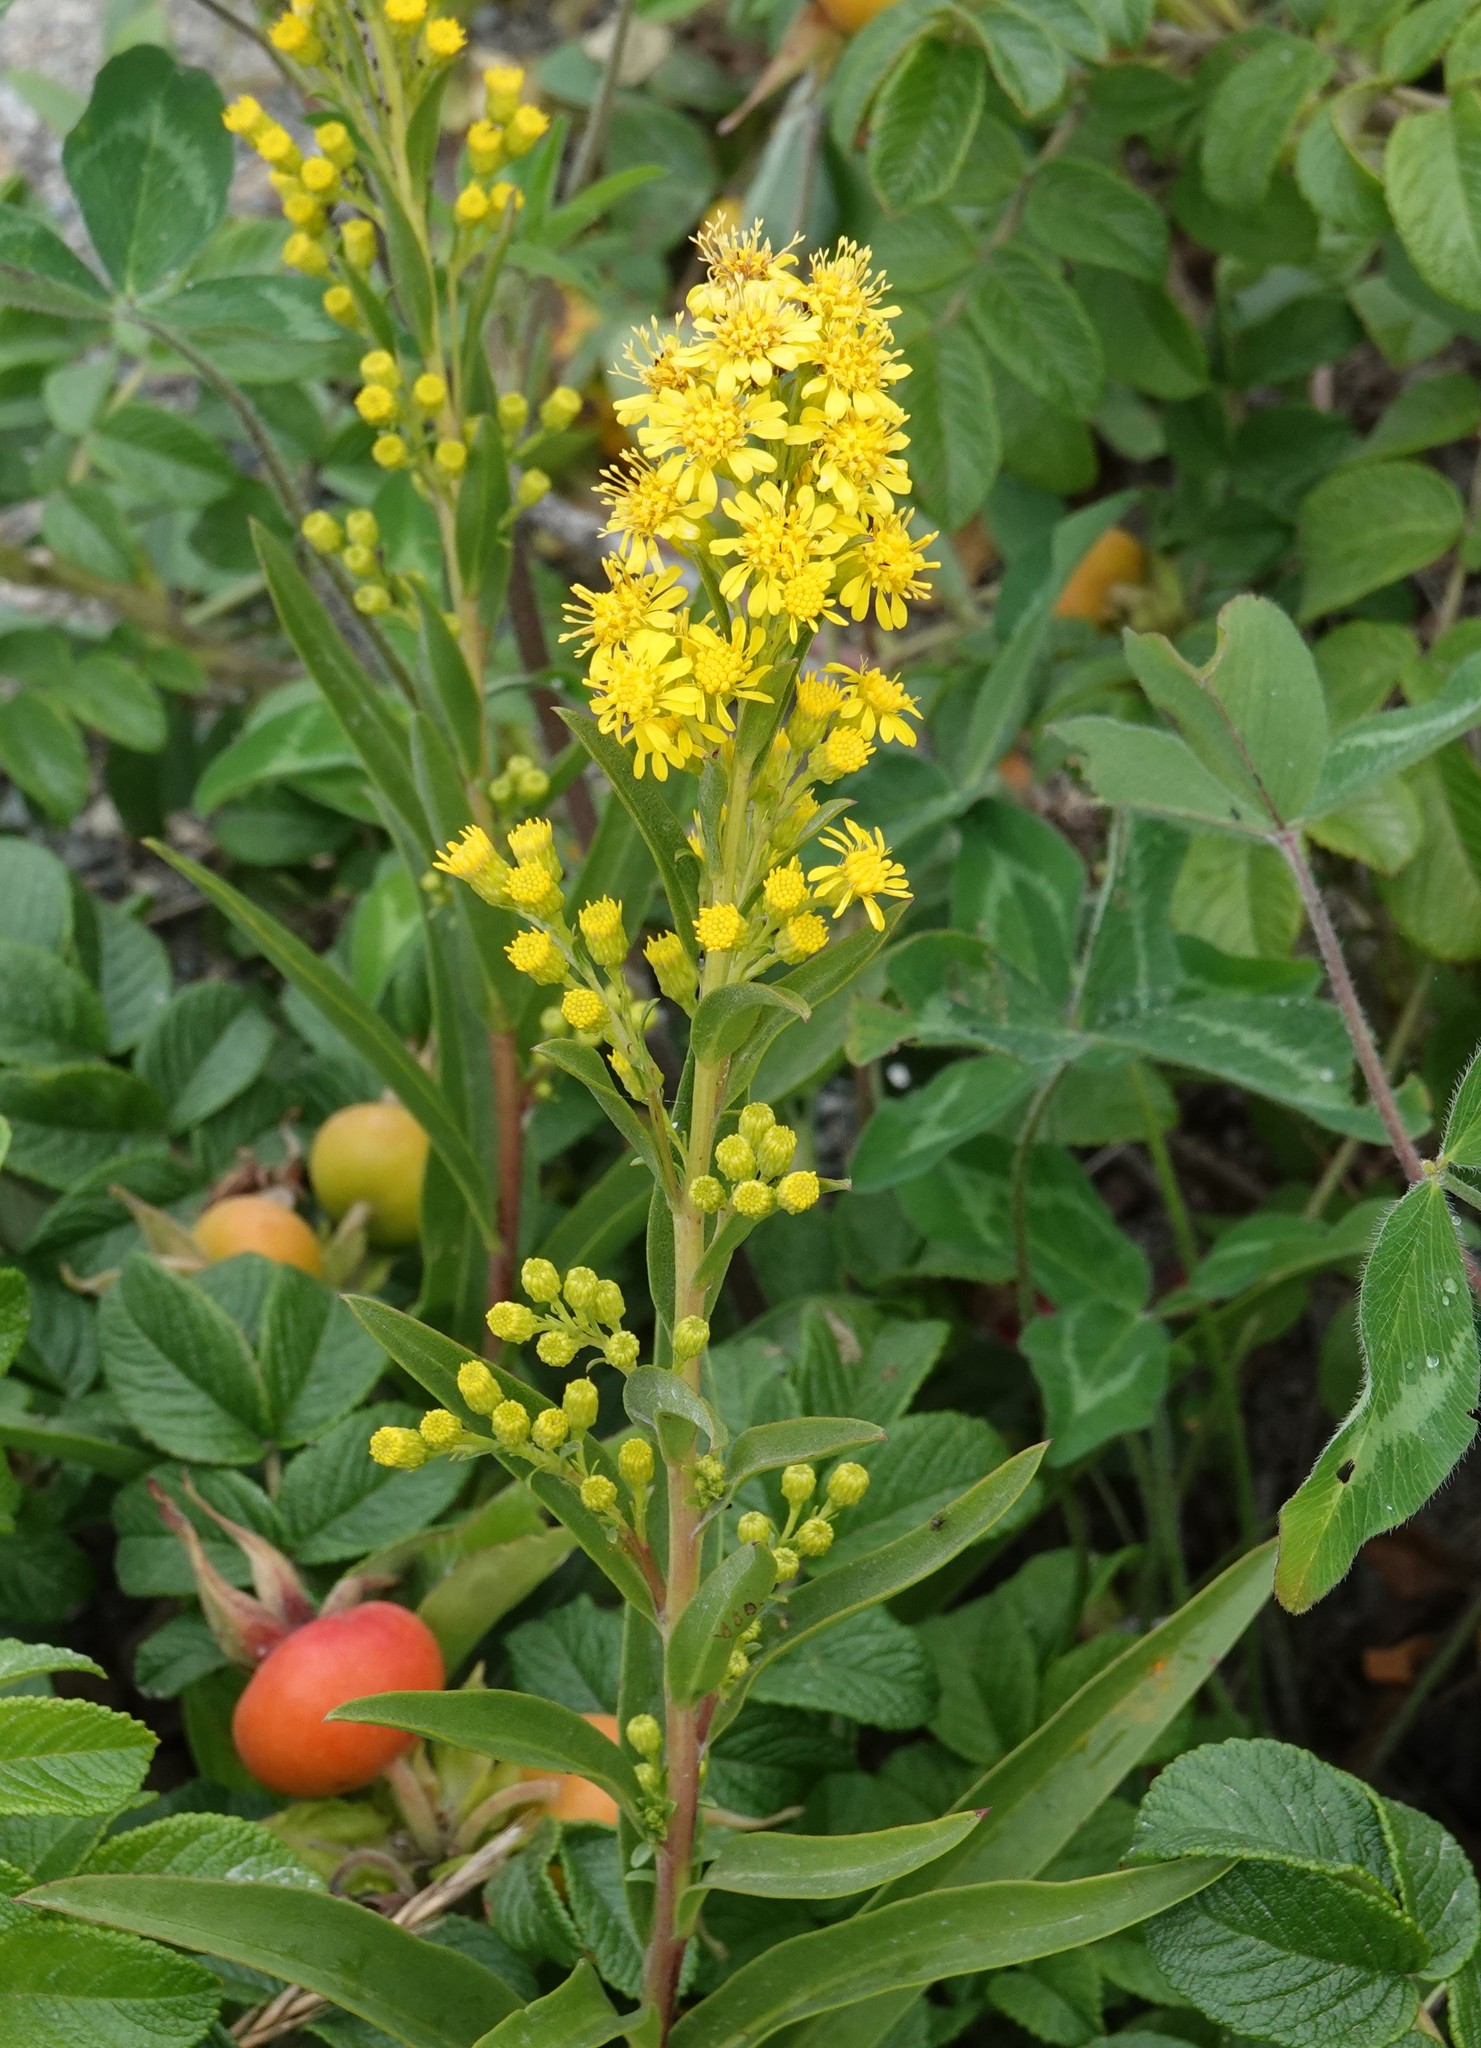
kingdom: Plantae
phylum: Tracheophyta
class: Magnoliopsida
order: Asterales
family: Asteraceae
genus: Solidago
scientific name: Solidago sempervirens
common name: Salt-marsh goldenrod
